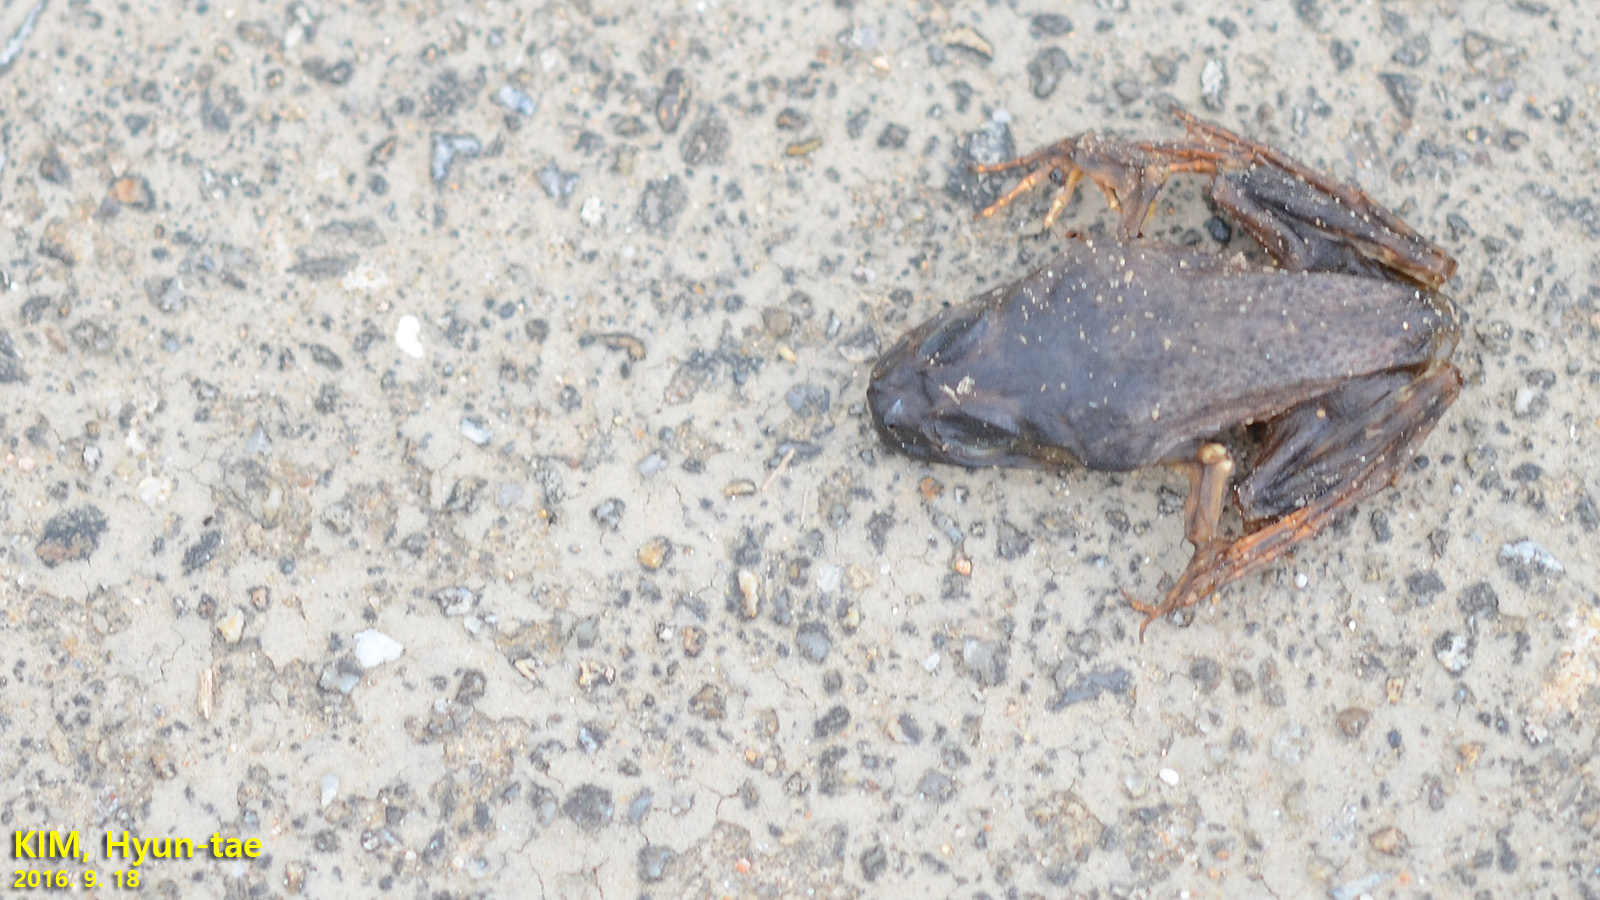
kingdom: Animalia
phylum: Chordata
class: Amphibia
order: Anura
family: Ranidae
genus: Lithobates
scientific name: Lithobates catesbeianus
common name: American bullfrog
